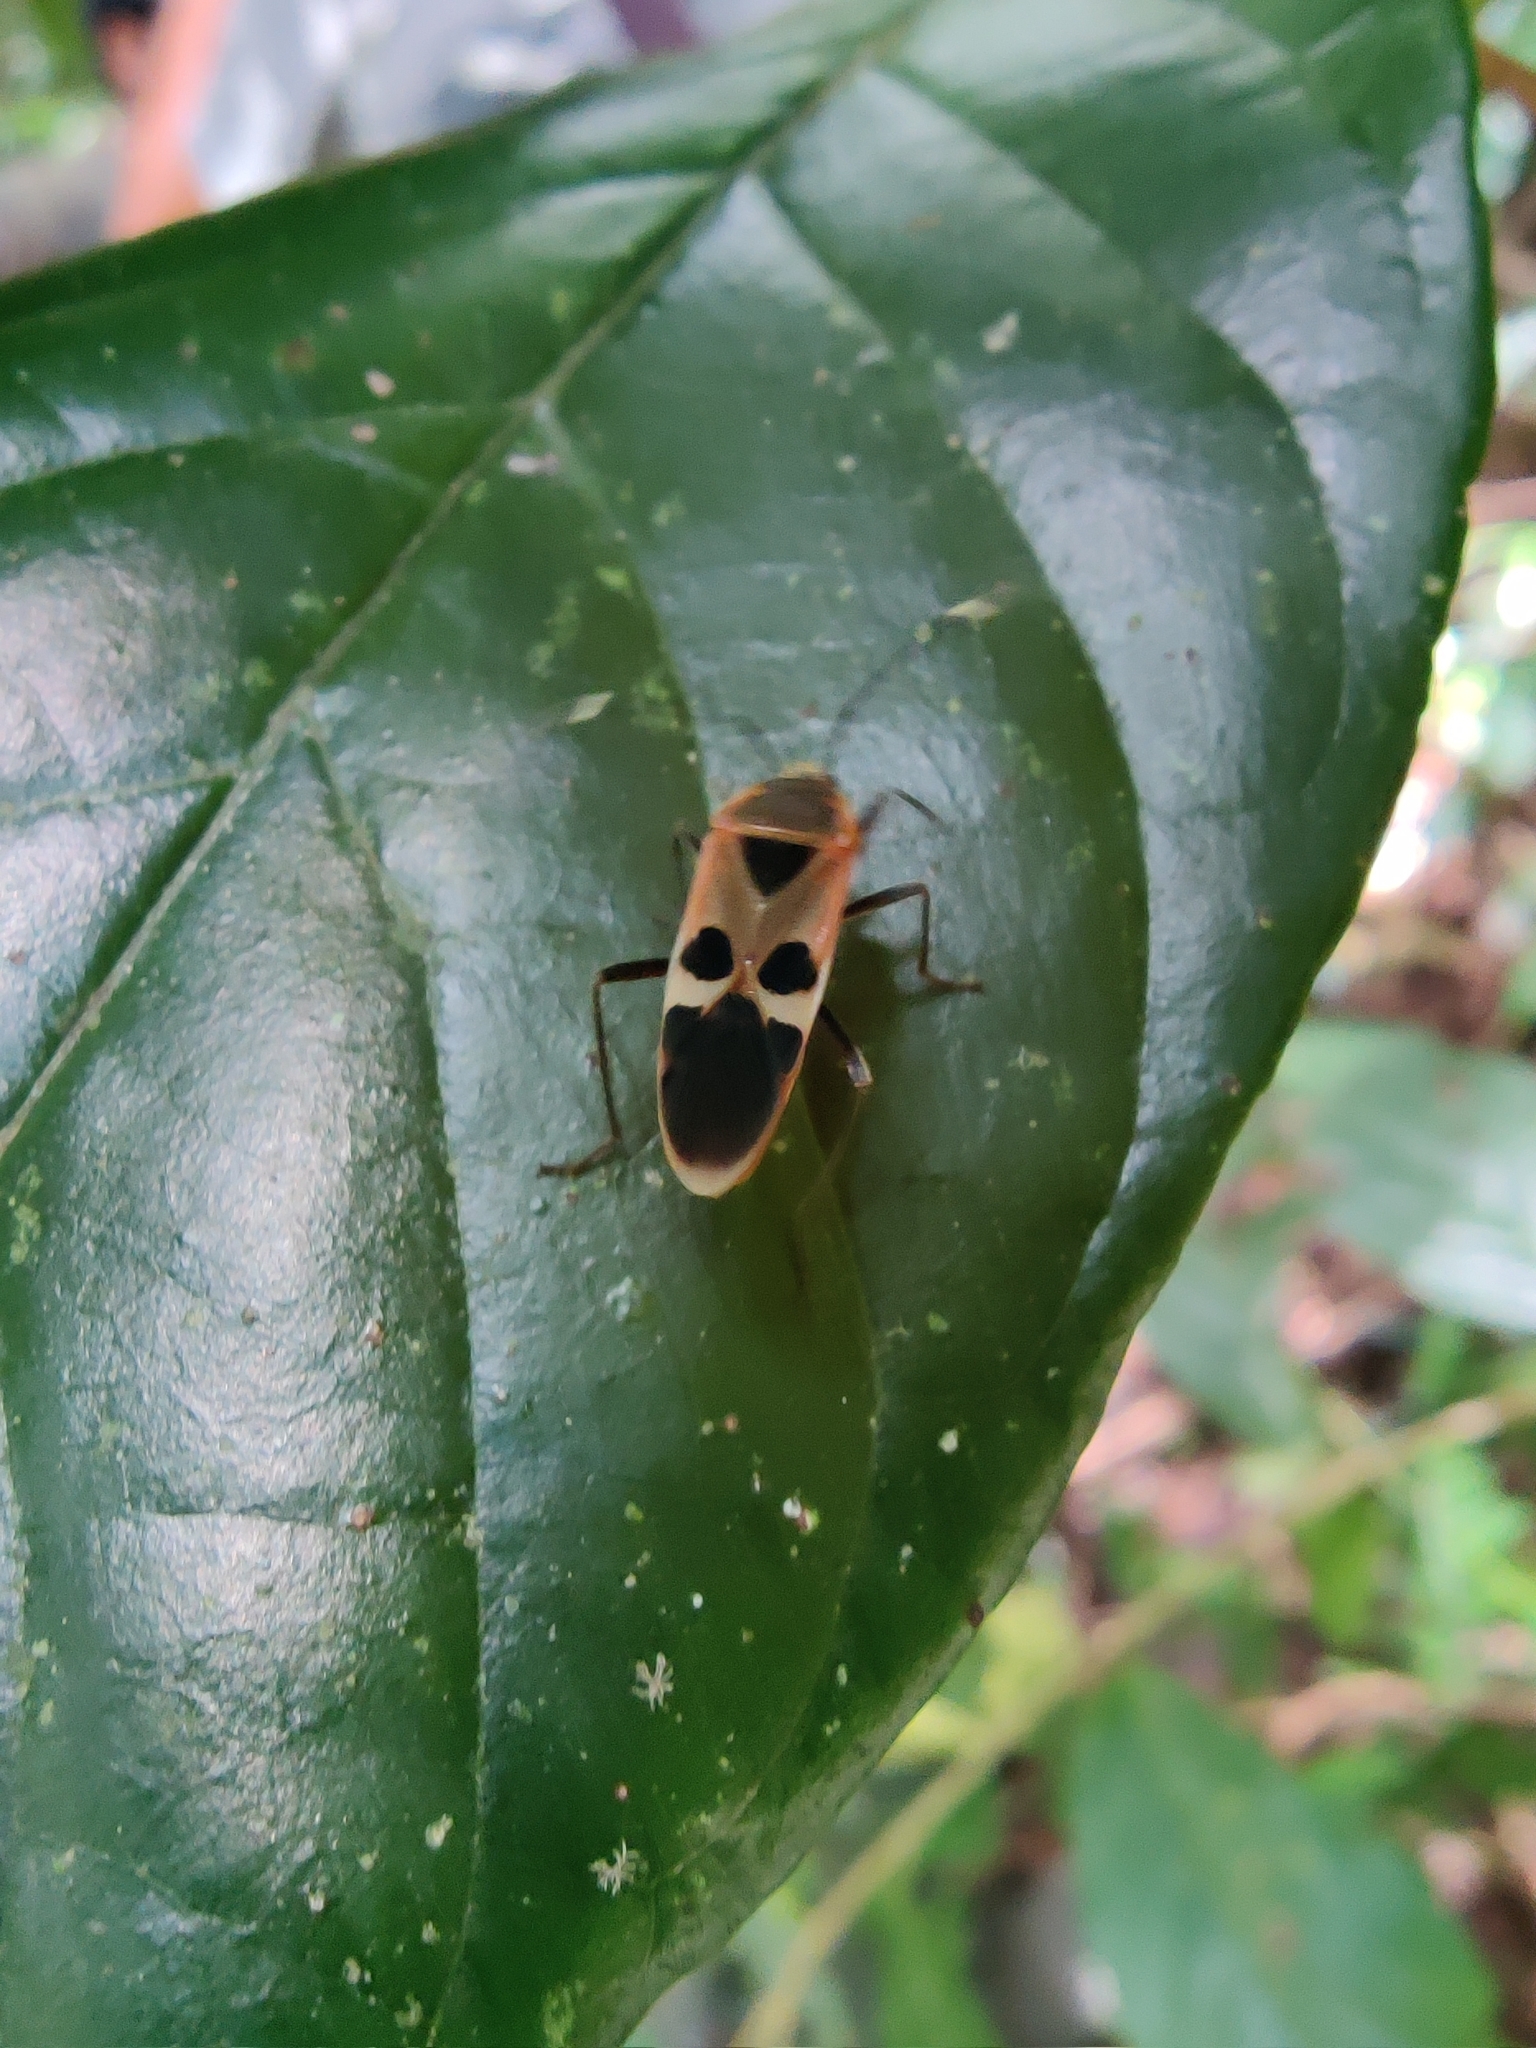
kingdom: Animalia
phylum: Arthropoda
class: Insecta
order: Hemiptera
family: Largidae
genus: Physopelta
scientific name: Physopelta gutta
